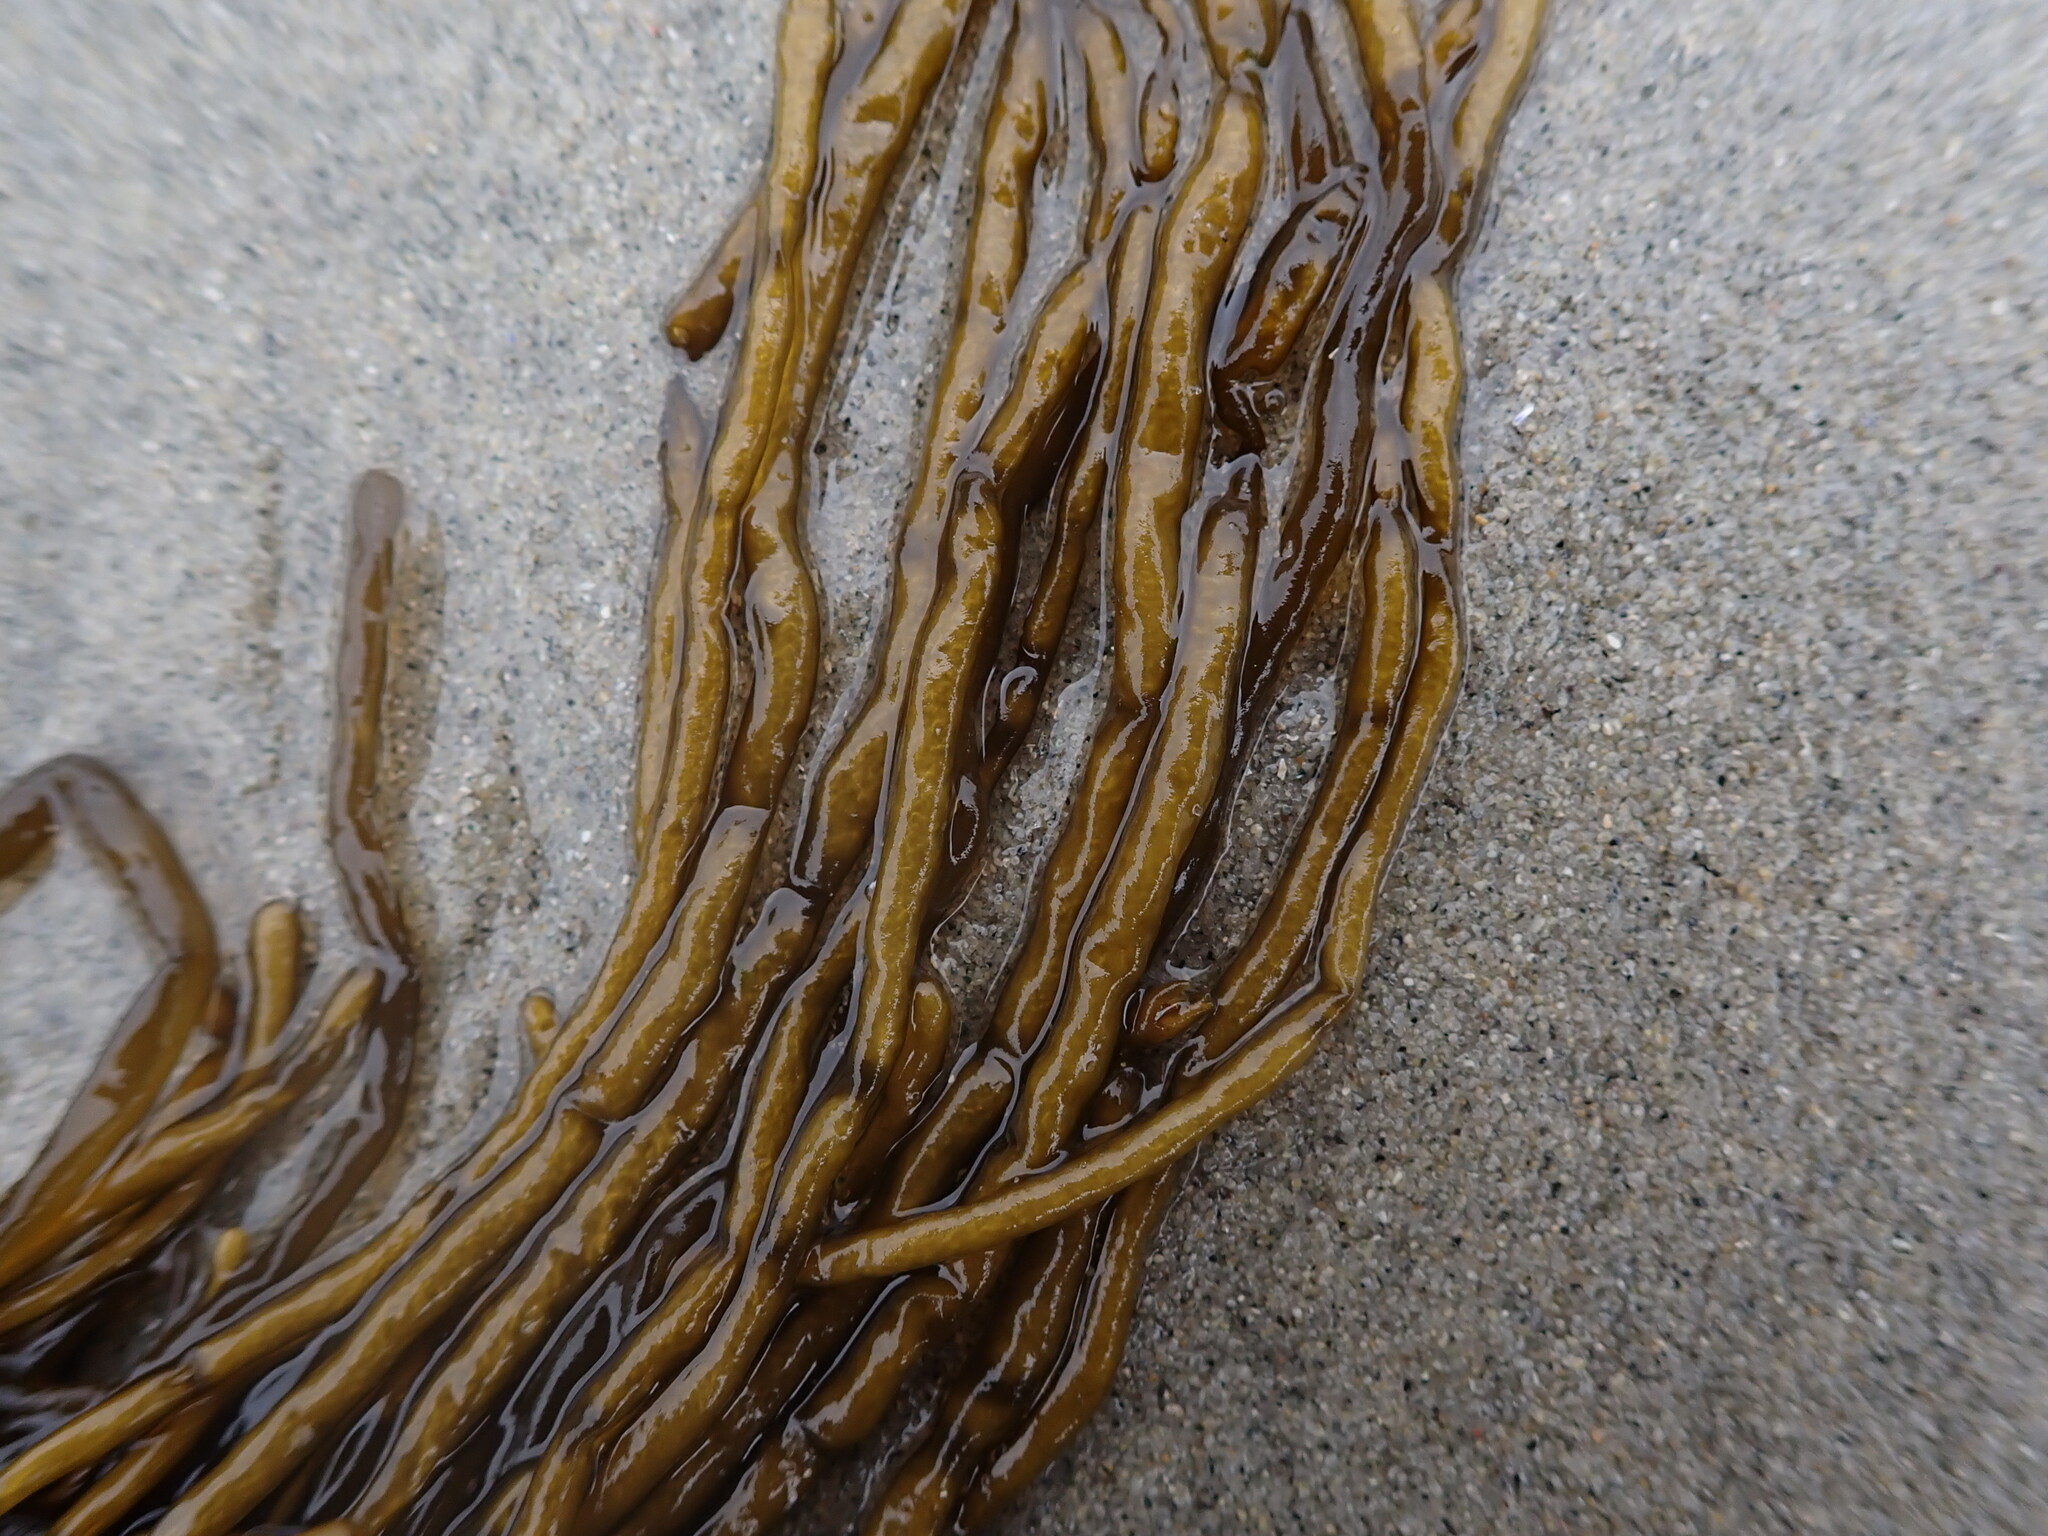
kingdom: Chromista
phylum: Ochrophyta
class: Phaeophyceae
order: Scytosiphonales
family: Scytosiphonaceae
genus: Scytosiphon
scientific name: Scytosiphon lomentaria
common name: Beanweed
